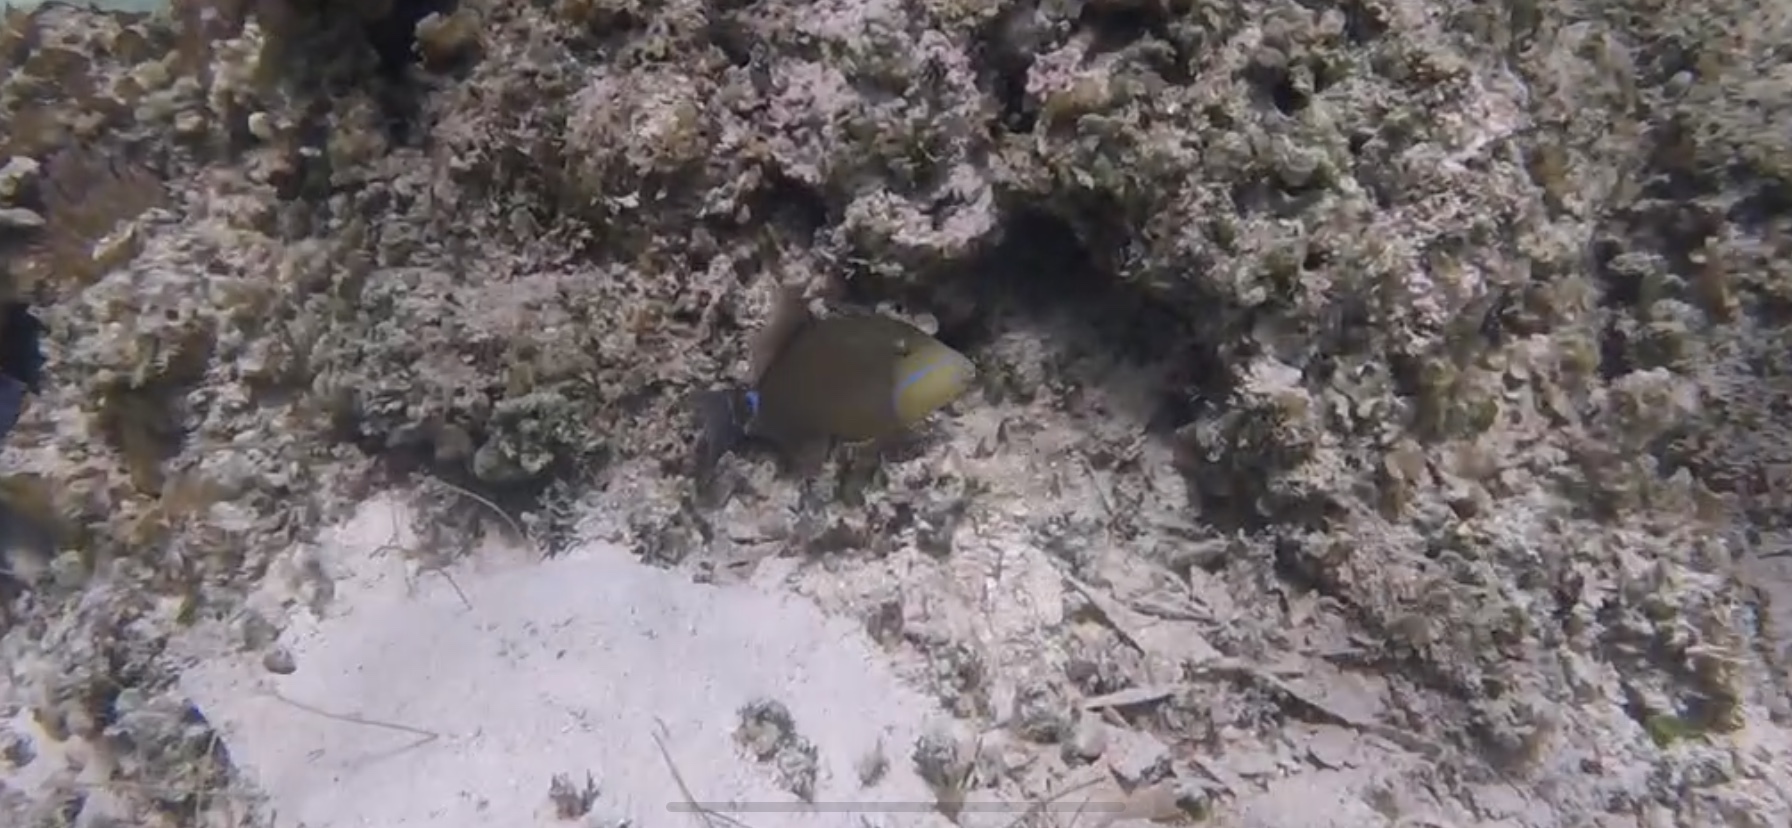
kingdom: Animalia
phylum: Chordata
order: Tetraodontiformes
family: Balistidae
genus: Balistes
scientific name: Balistes vetula
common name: Queen triggerfish
